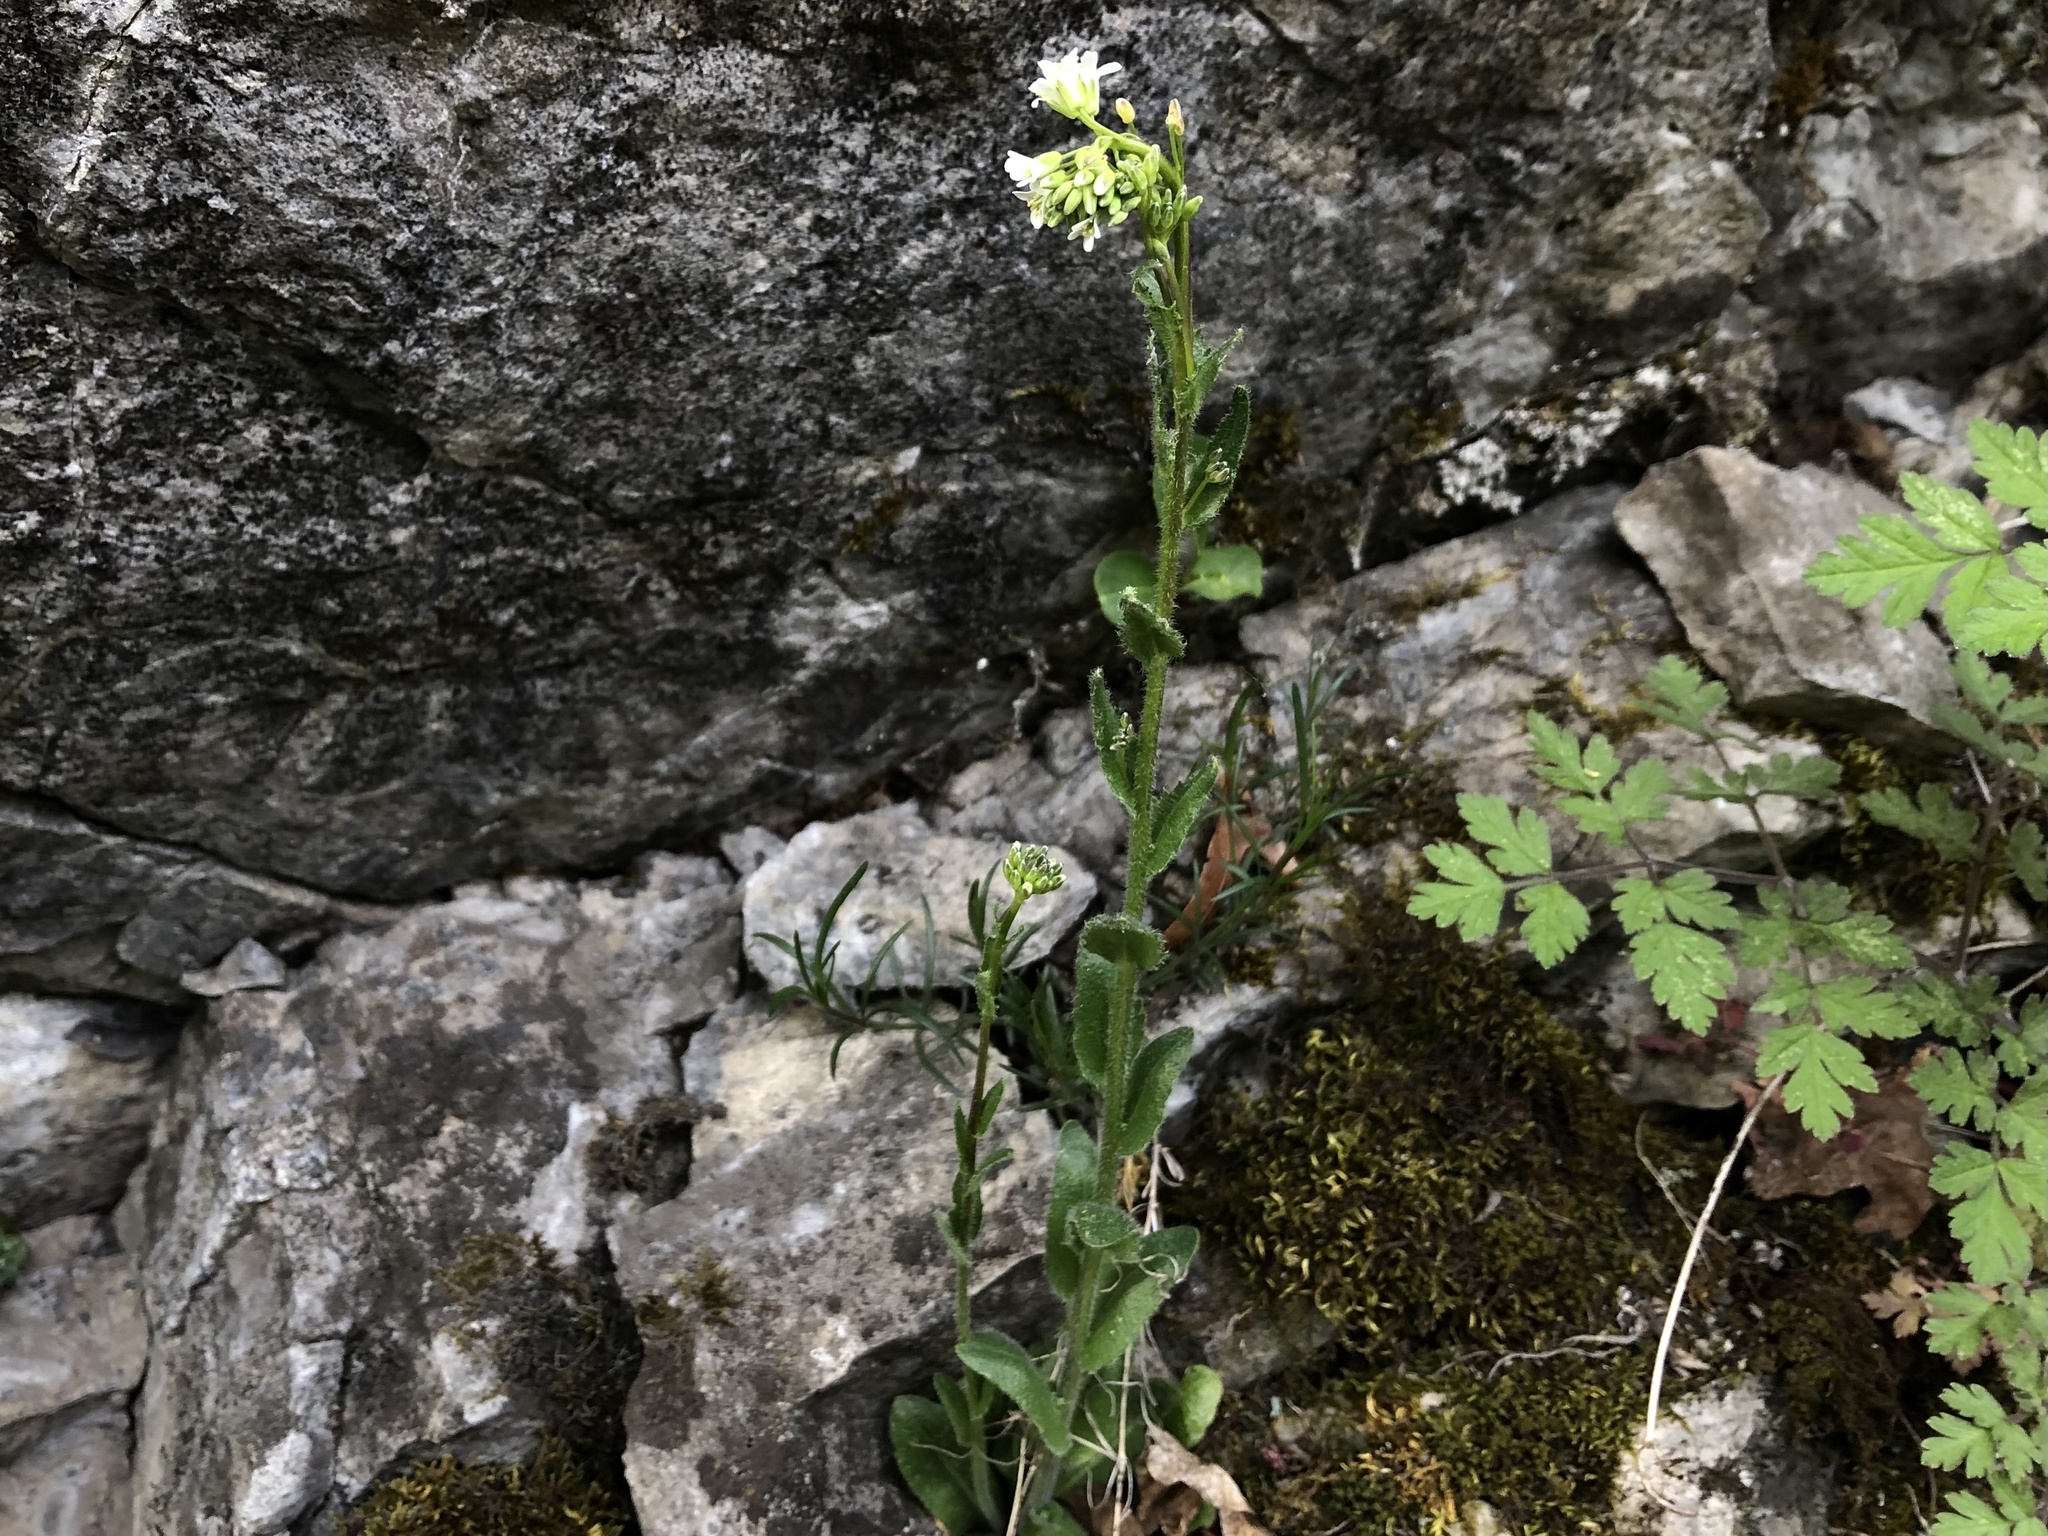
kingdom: Plantae
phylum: Tracheophyta
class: Magnoliopsida
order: Brassicales
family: Brassicaceae
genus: Arabis
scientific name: Arabis sagittata
